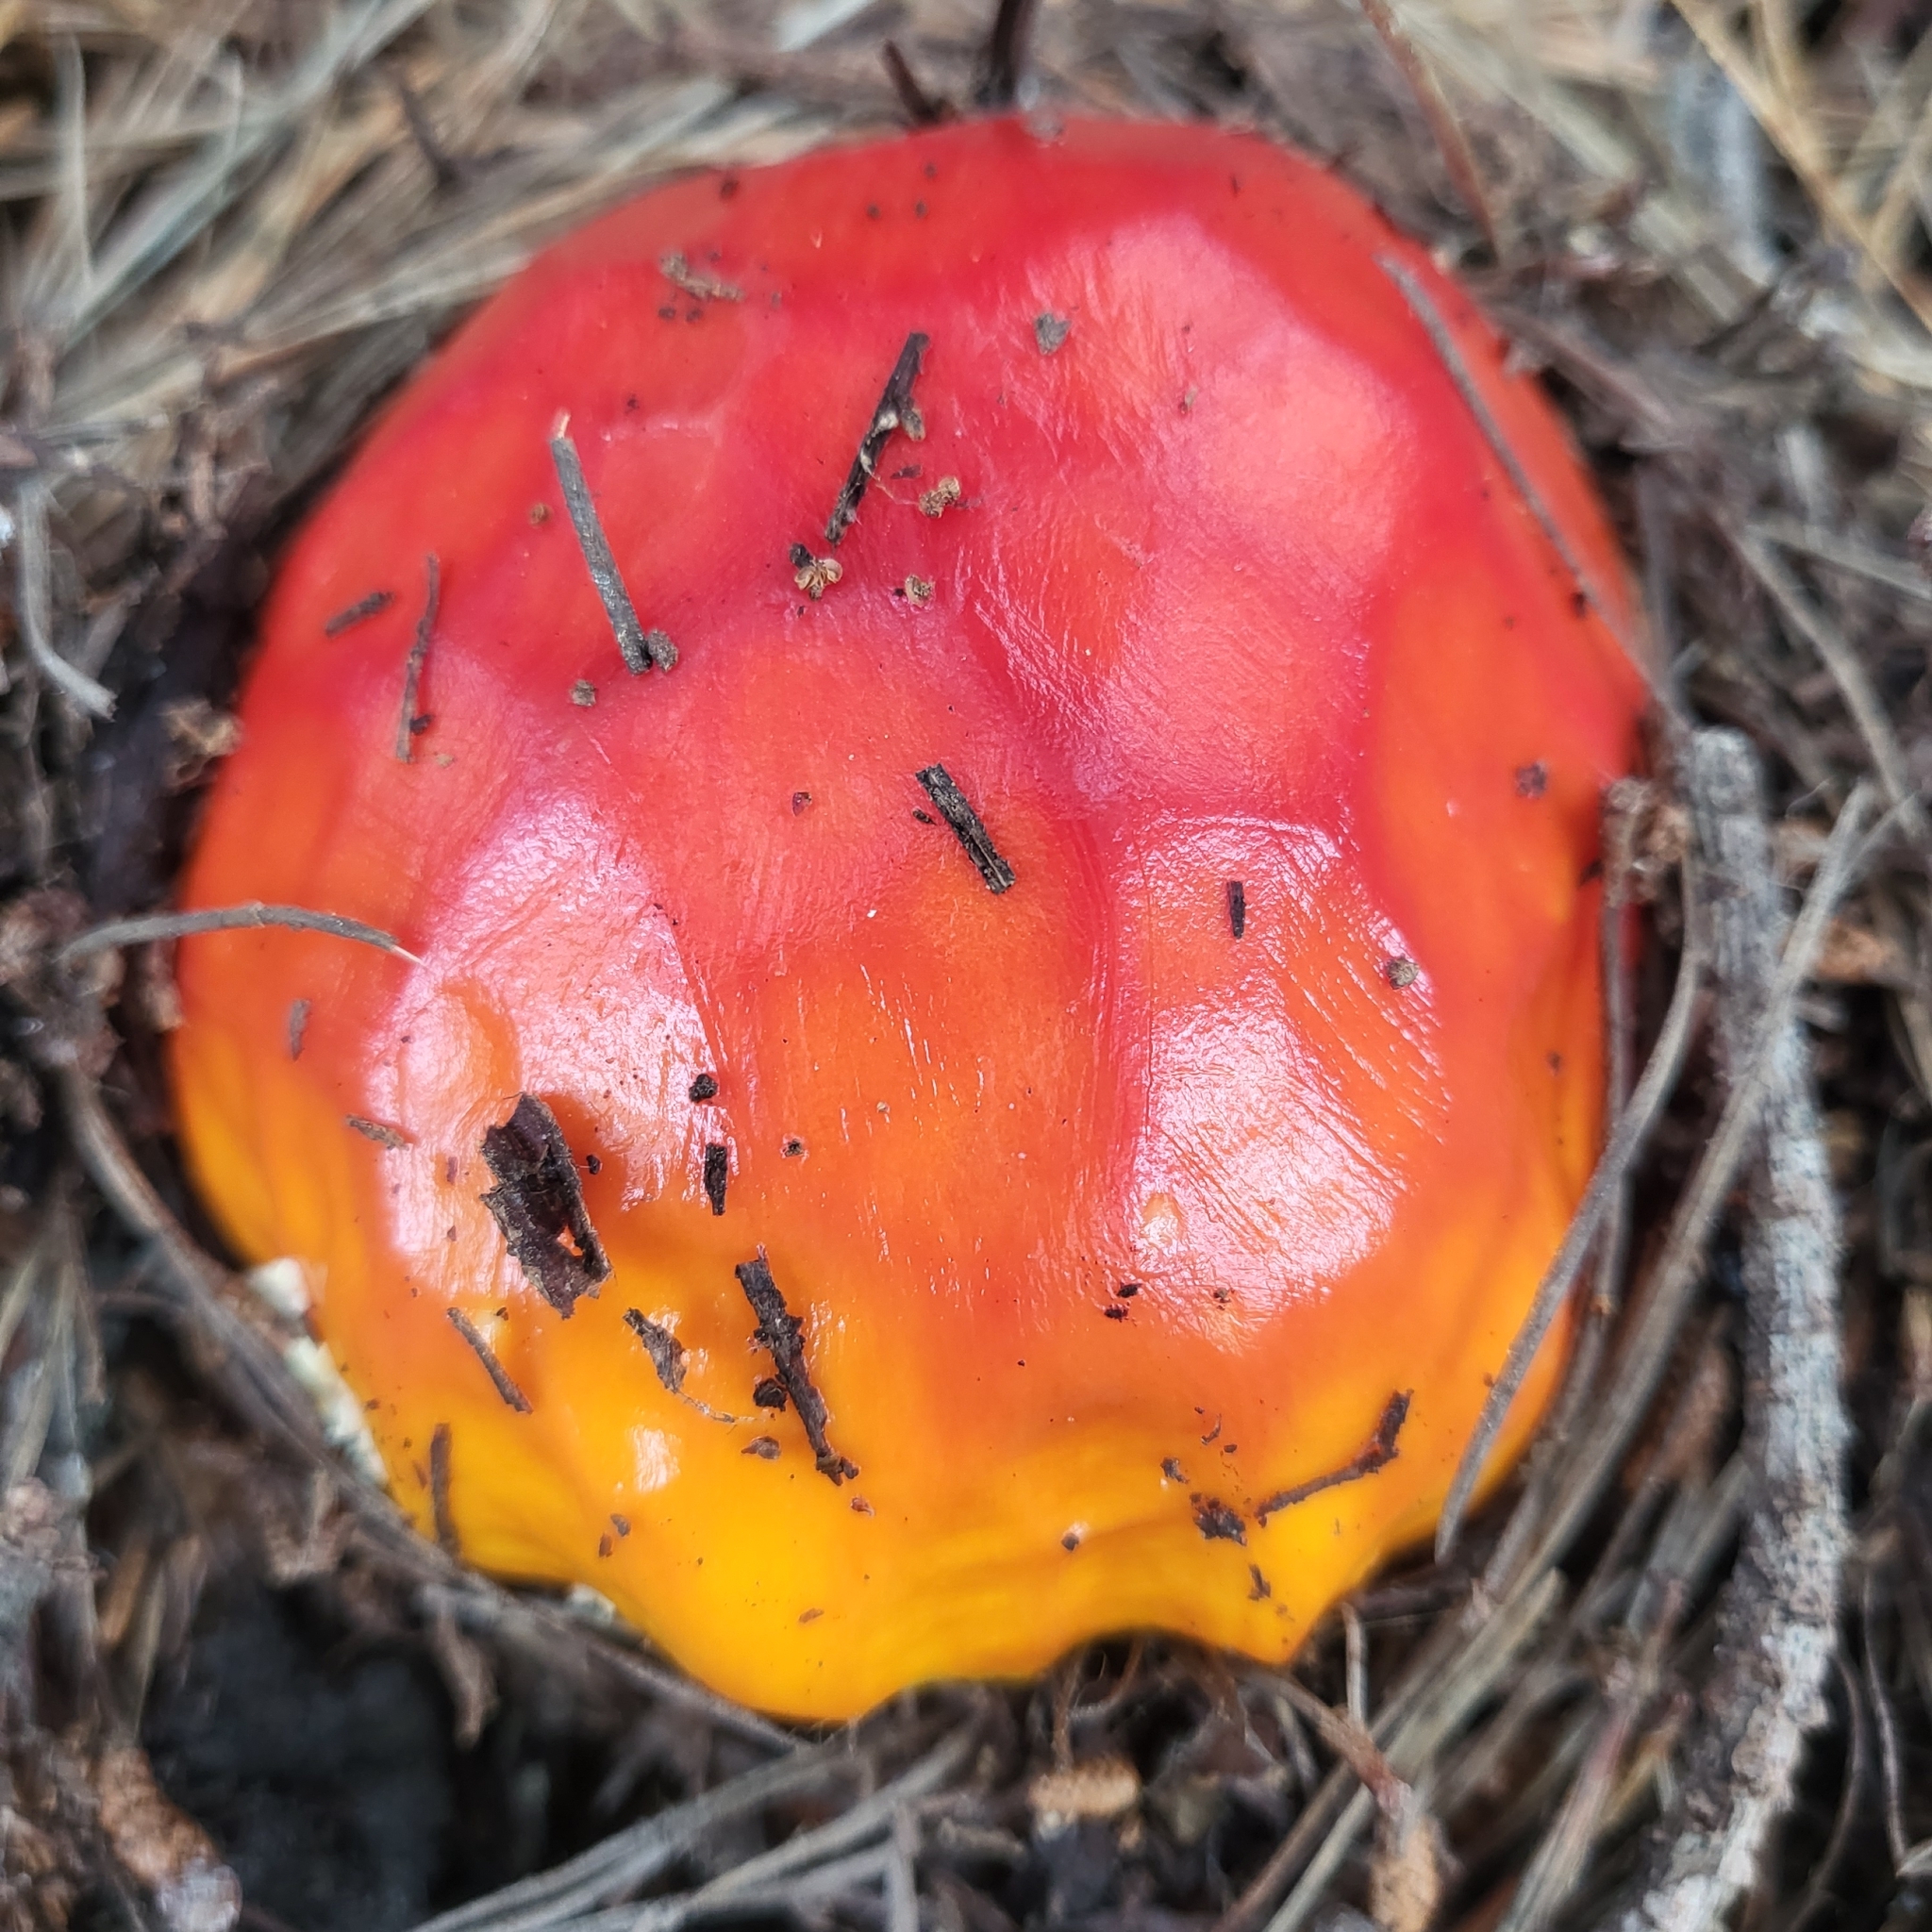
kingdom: Fungi
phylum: Basidiomycota
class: Agaricomycetes
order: Agaricales
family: Amanitaceae
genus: Amanita
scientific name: Amanita muscaria
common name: Fly agaric
